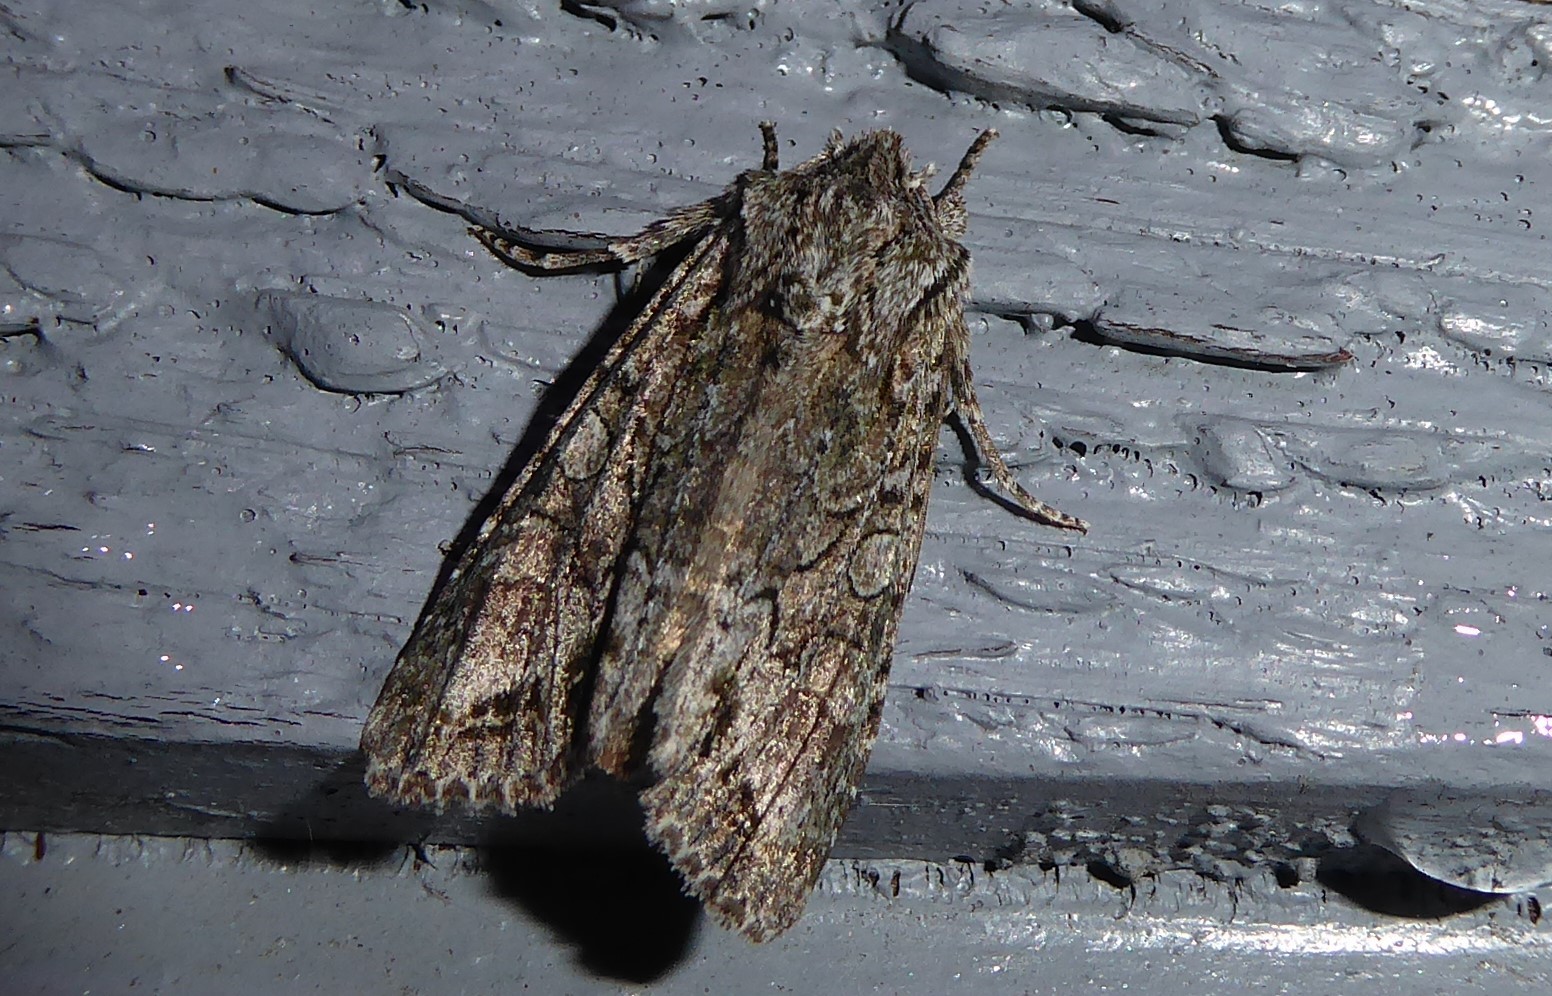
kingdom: Animalia
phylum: Arthropoda
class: Insecta
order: Lepidoptera
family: Noctuidae
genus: Ichneutica
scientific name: Ichneutica mutans
